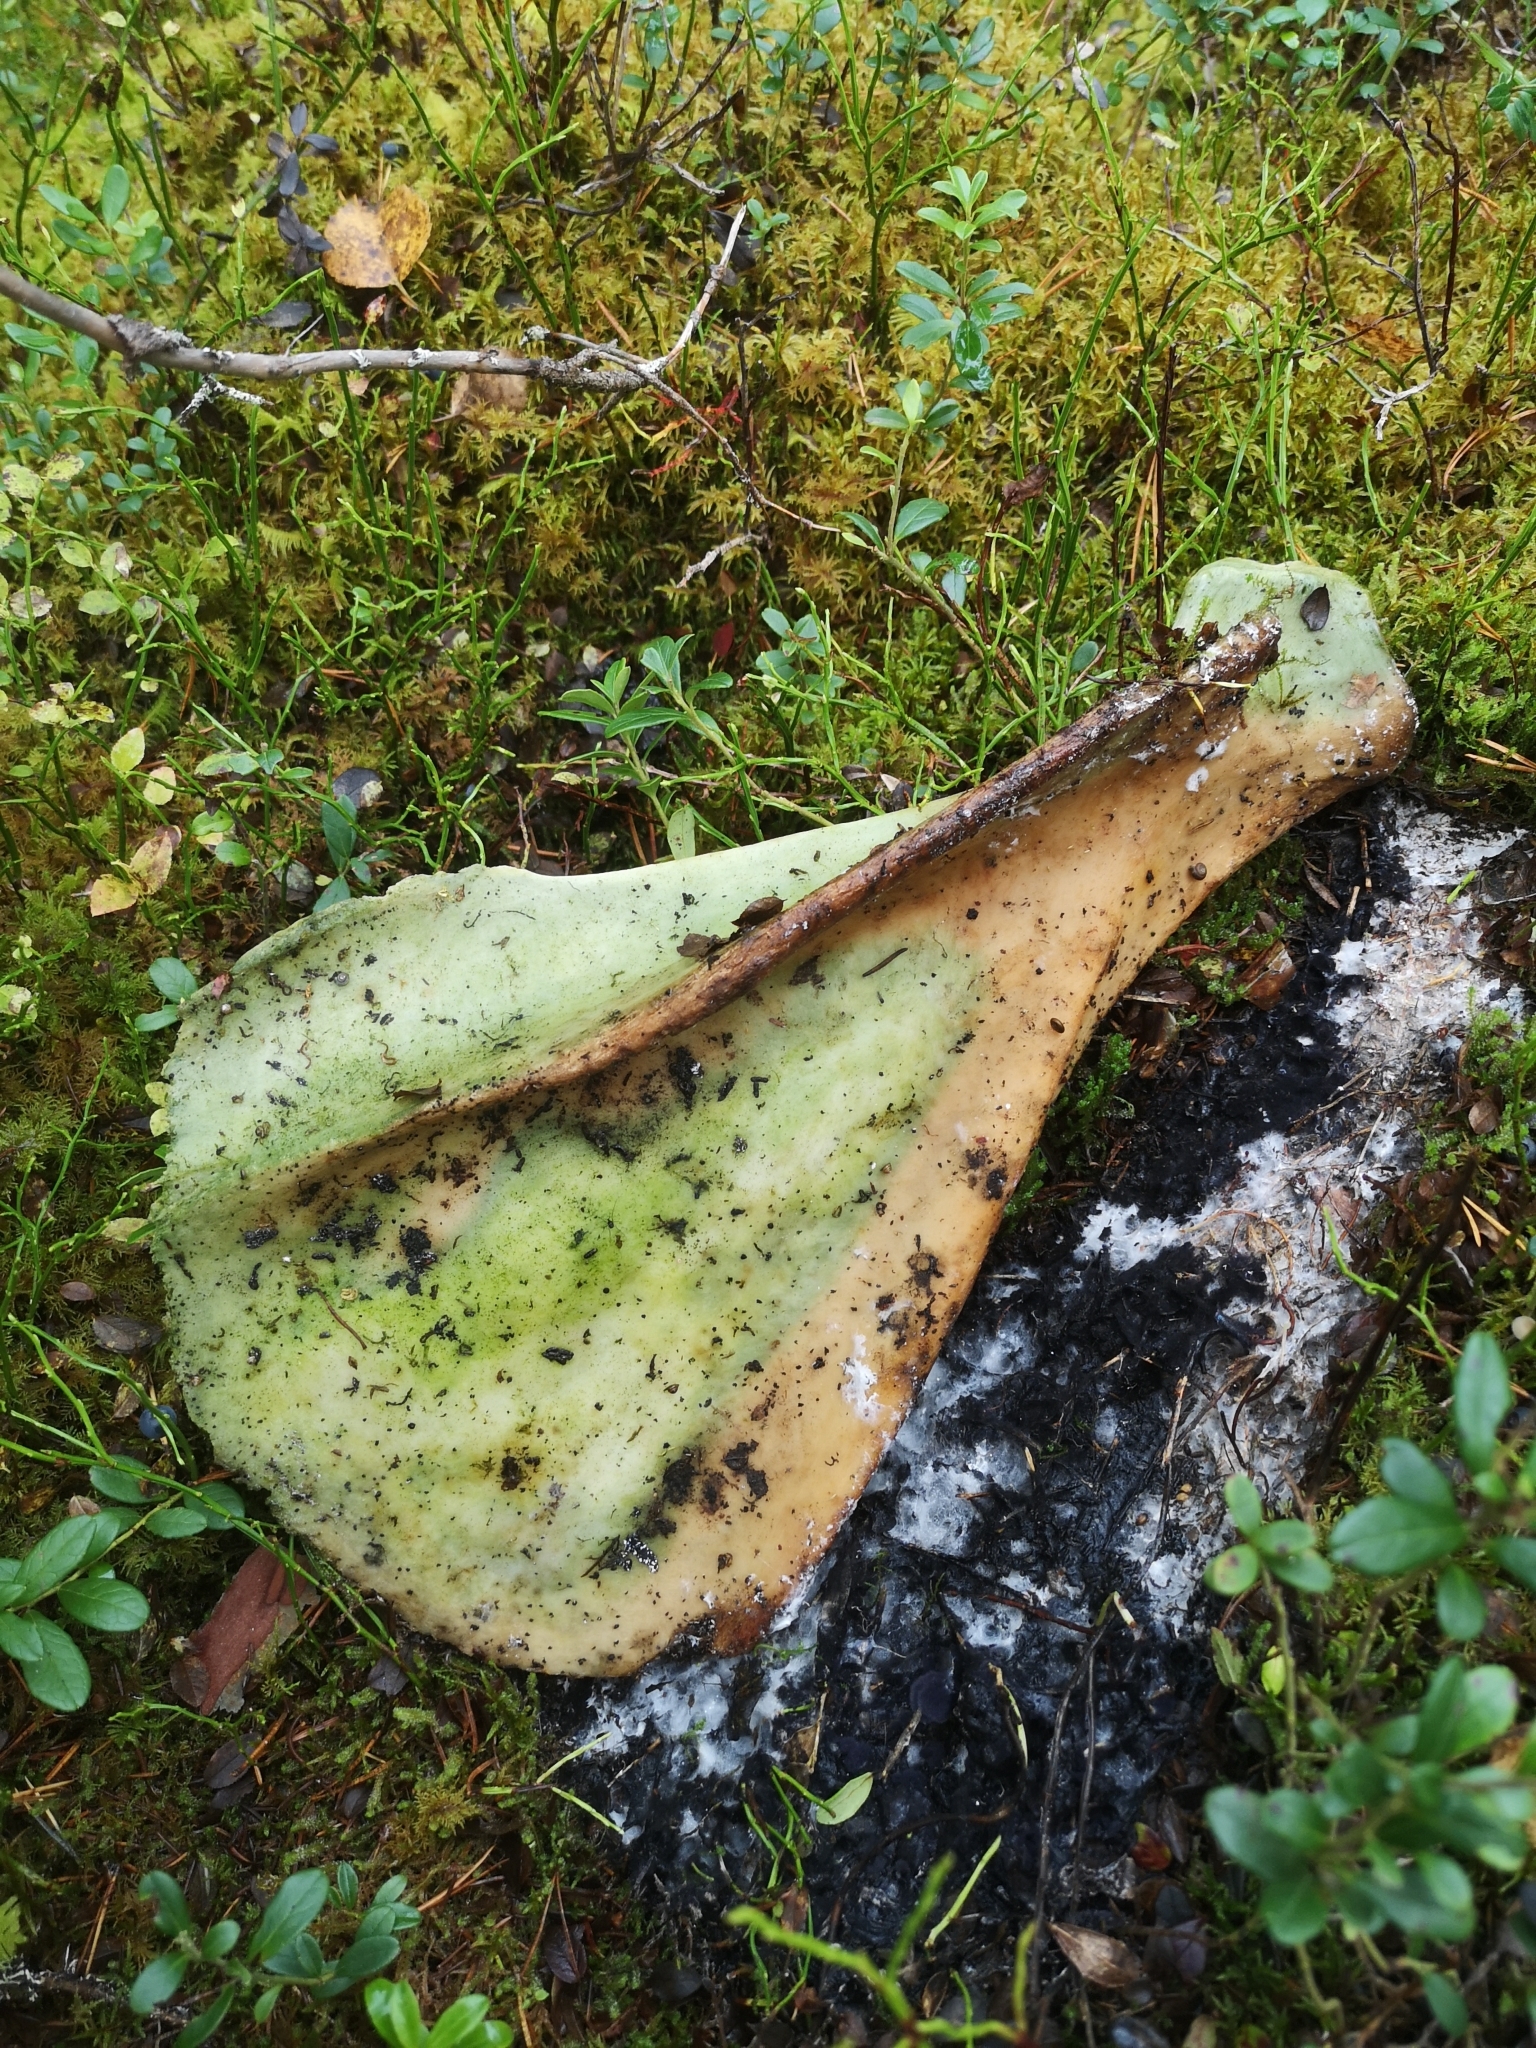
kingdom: Animalia
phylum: Chordata
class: Mammalia
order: Artiodactyla
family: Cervidae
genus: Alces
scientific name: Alces alces
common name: Moose
